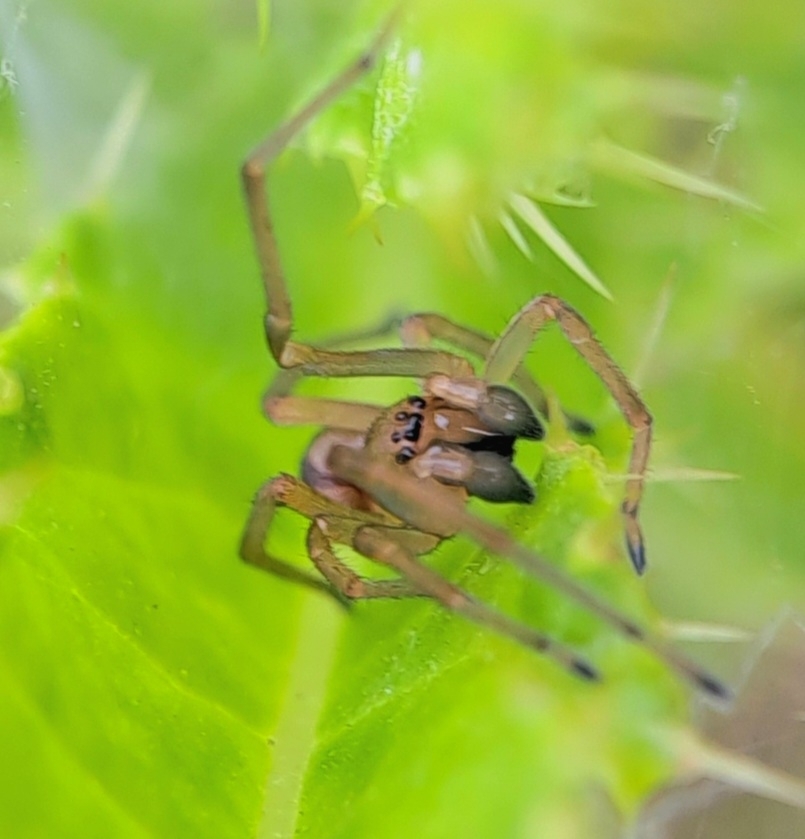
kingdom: Animalia
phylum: Arthropoda
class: Arachnida
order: Araneae
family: Cheiracanthiidae
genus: Cheiracanthium
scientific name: Cheiracanthium erraticum
